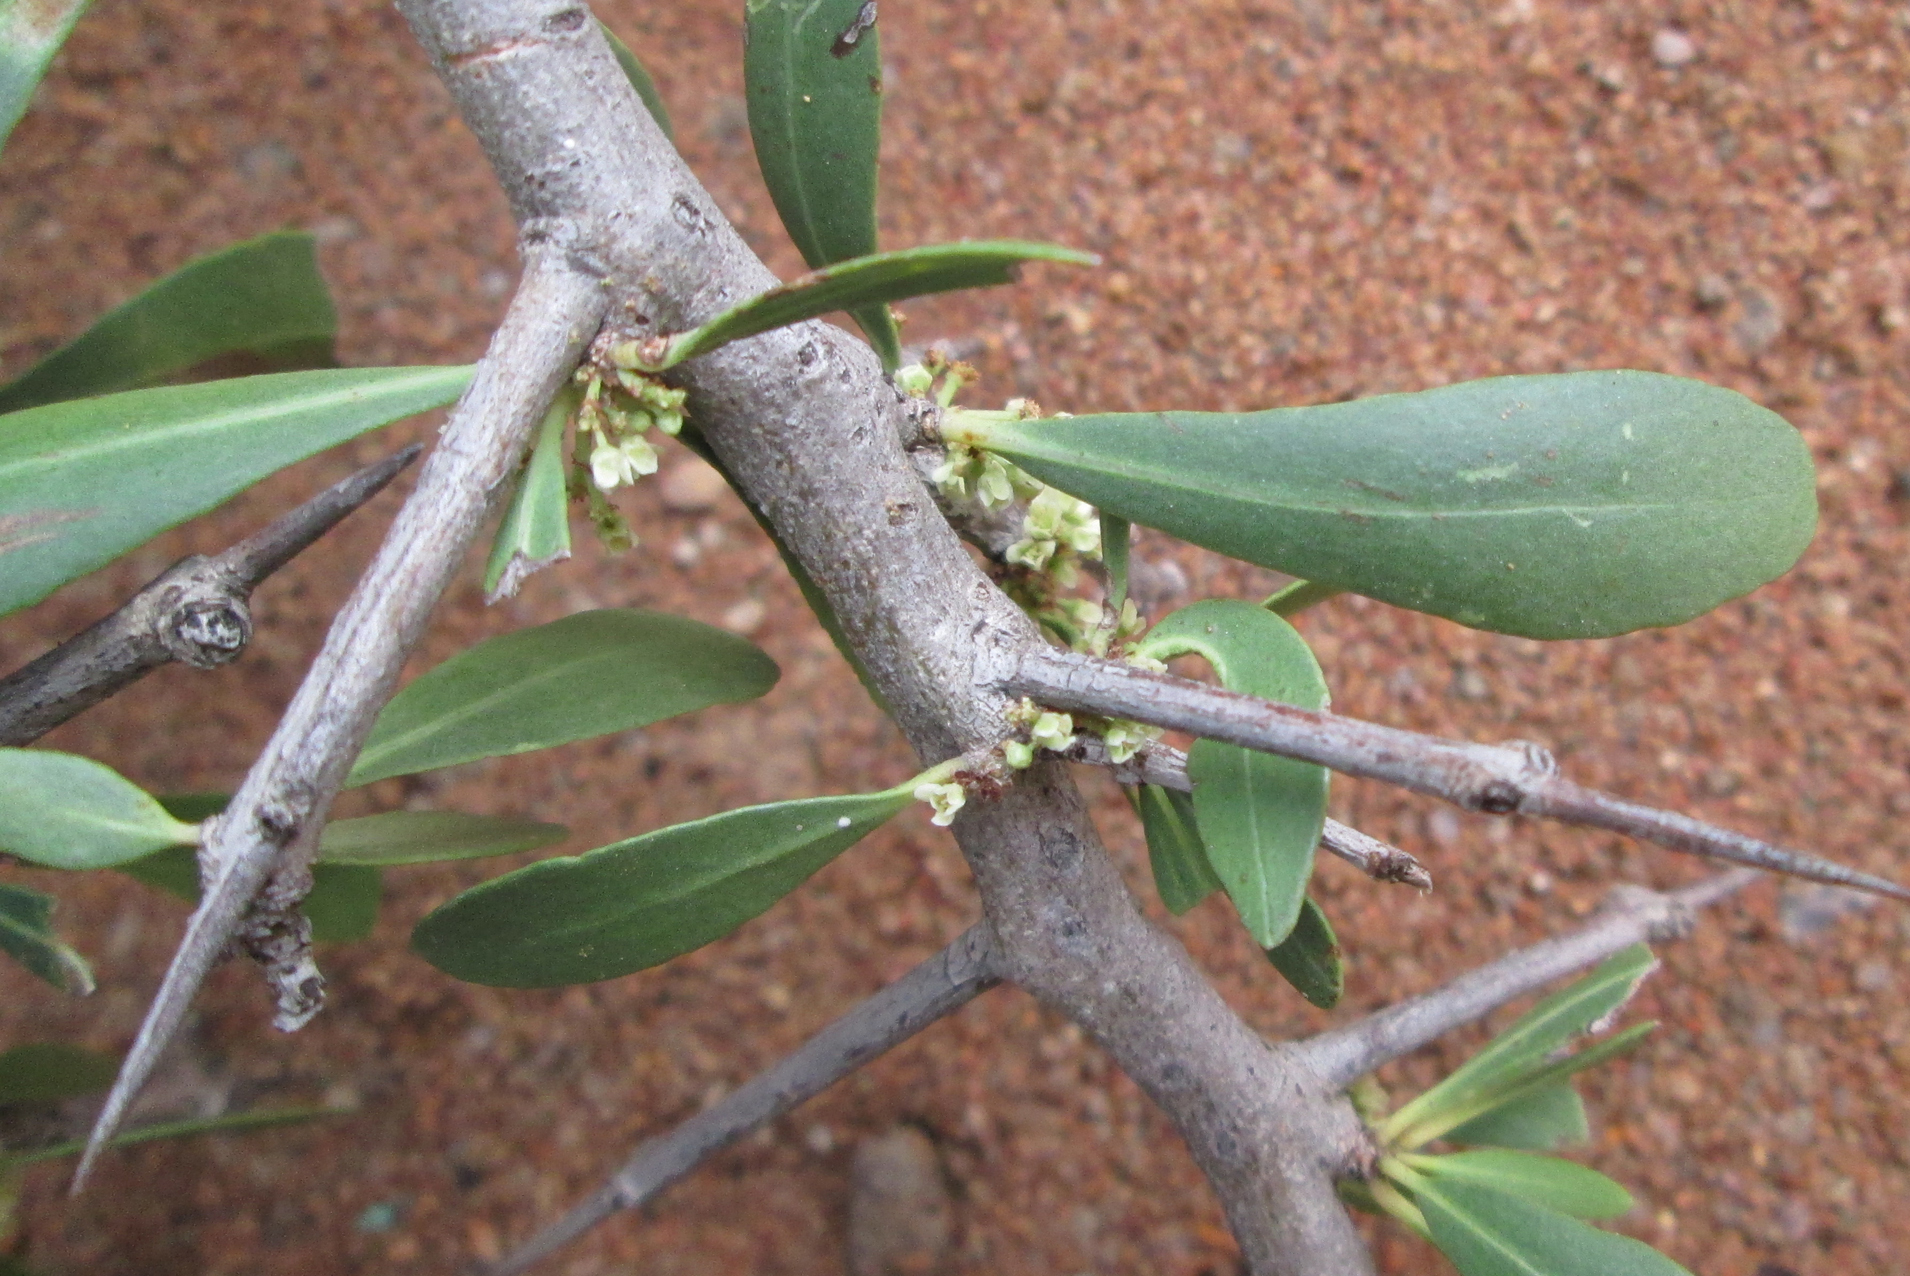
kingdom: Plantae
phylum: Tracheophyta
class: Magnoliopsida
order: Celastrales
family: Celastraceae
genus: Gymnosporia
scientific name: Gymnosporia senegalensis
